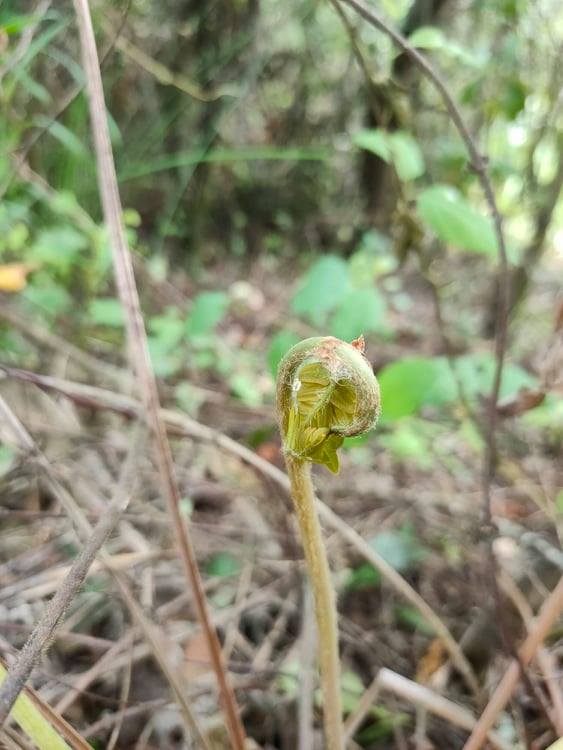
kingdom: Plantae
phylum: Tracheophyta
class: Polypodiopsida
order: Osmundales
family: Osmundaceae
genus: Osmunda
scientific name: Osmunda regalis
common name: Royal fern
